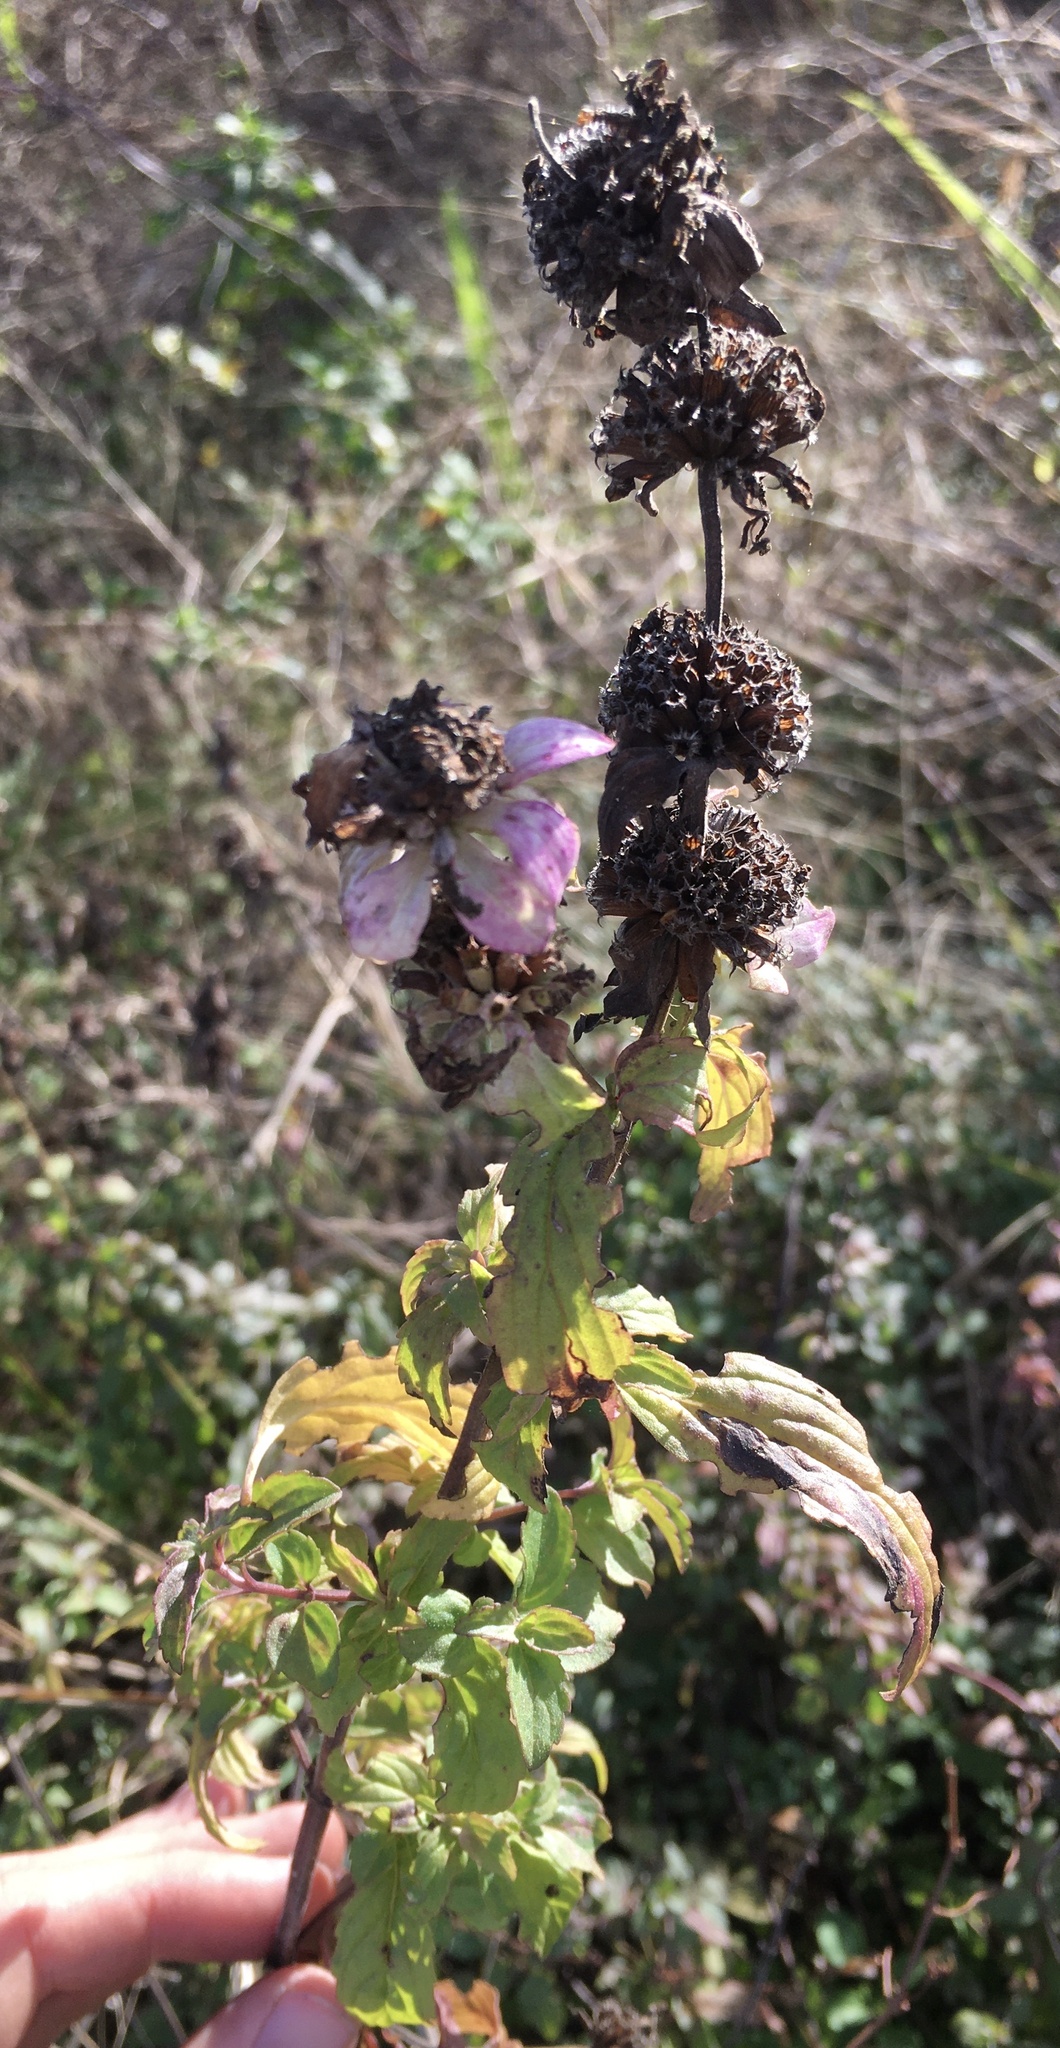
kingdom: Plantae
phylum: Tracheophyta
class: Magnoliopsida
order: Lamiales
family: Lamiaceae
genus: Monarda
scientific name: Monarda punctata
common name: Dotted monarda
